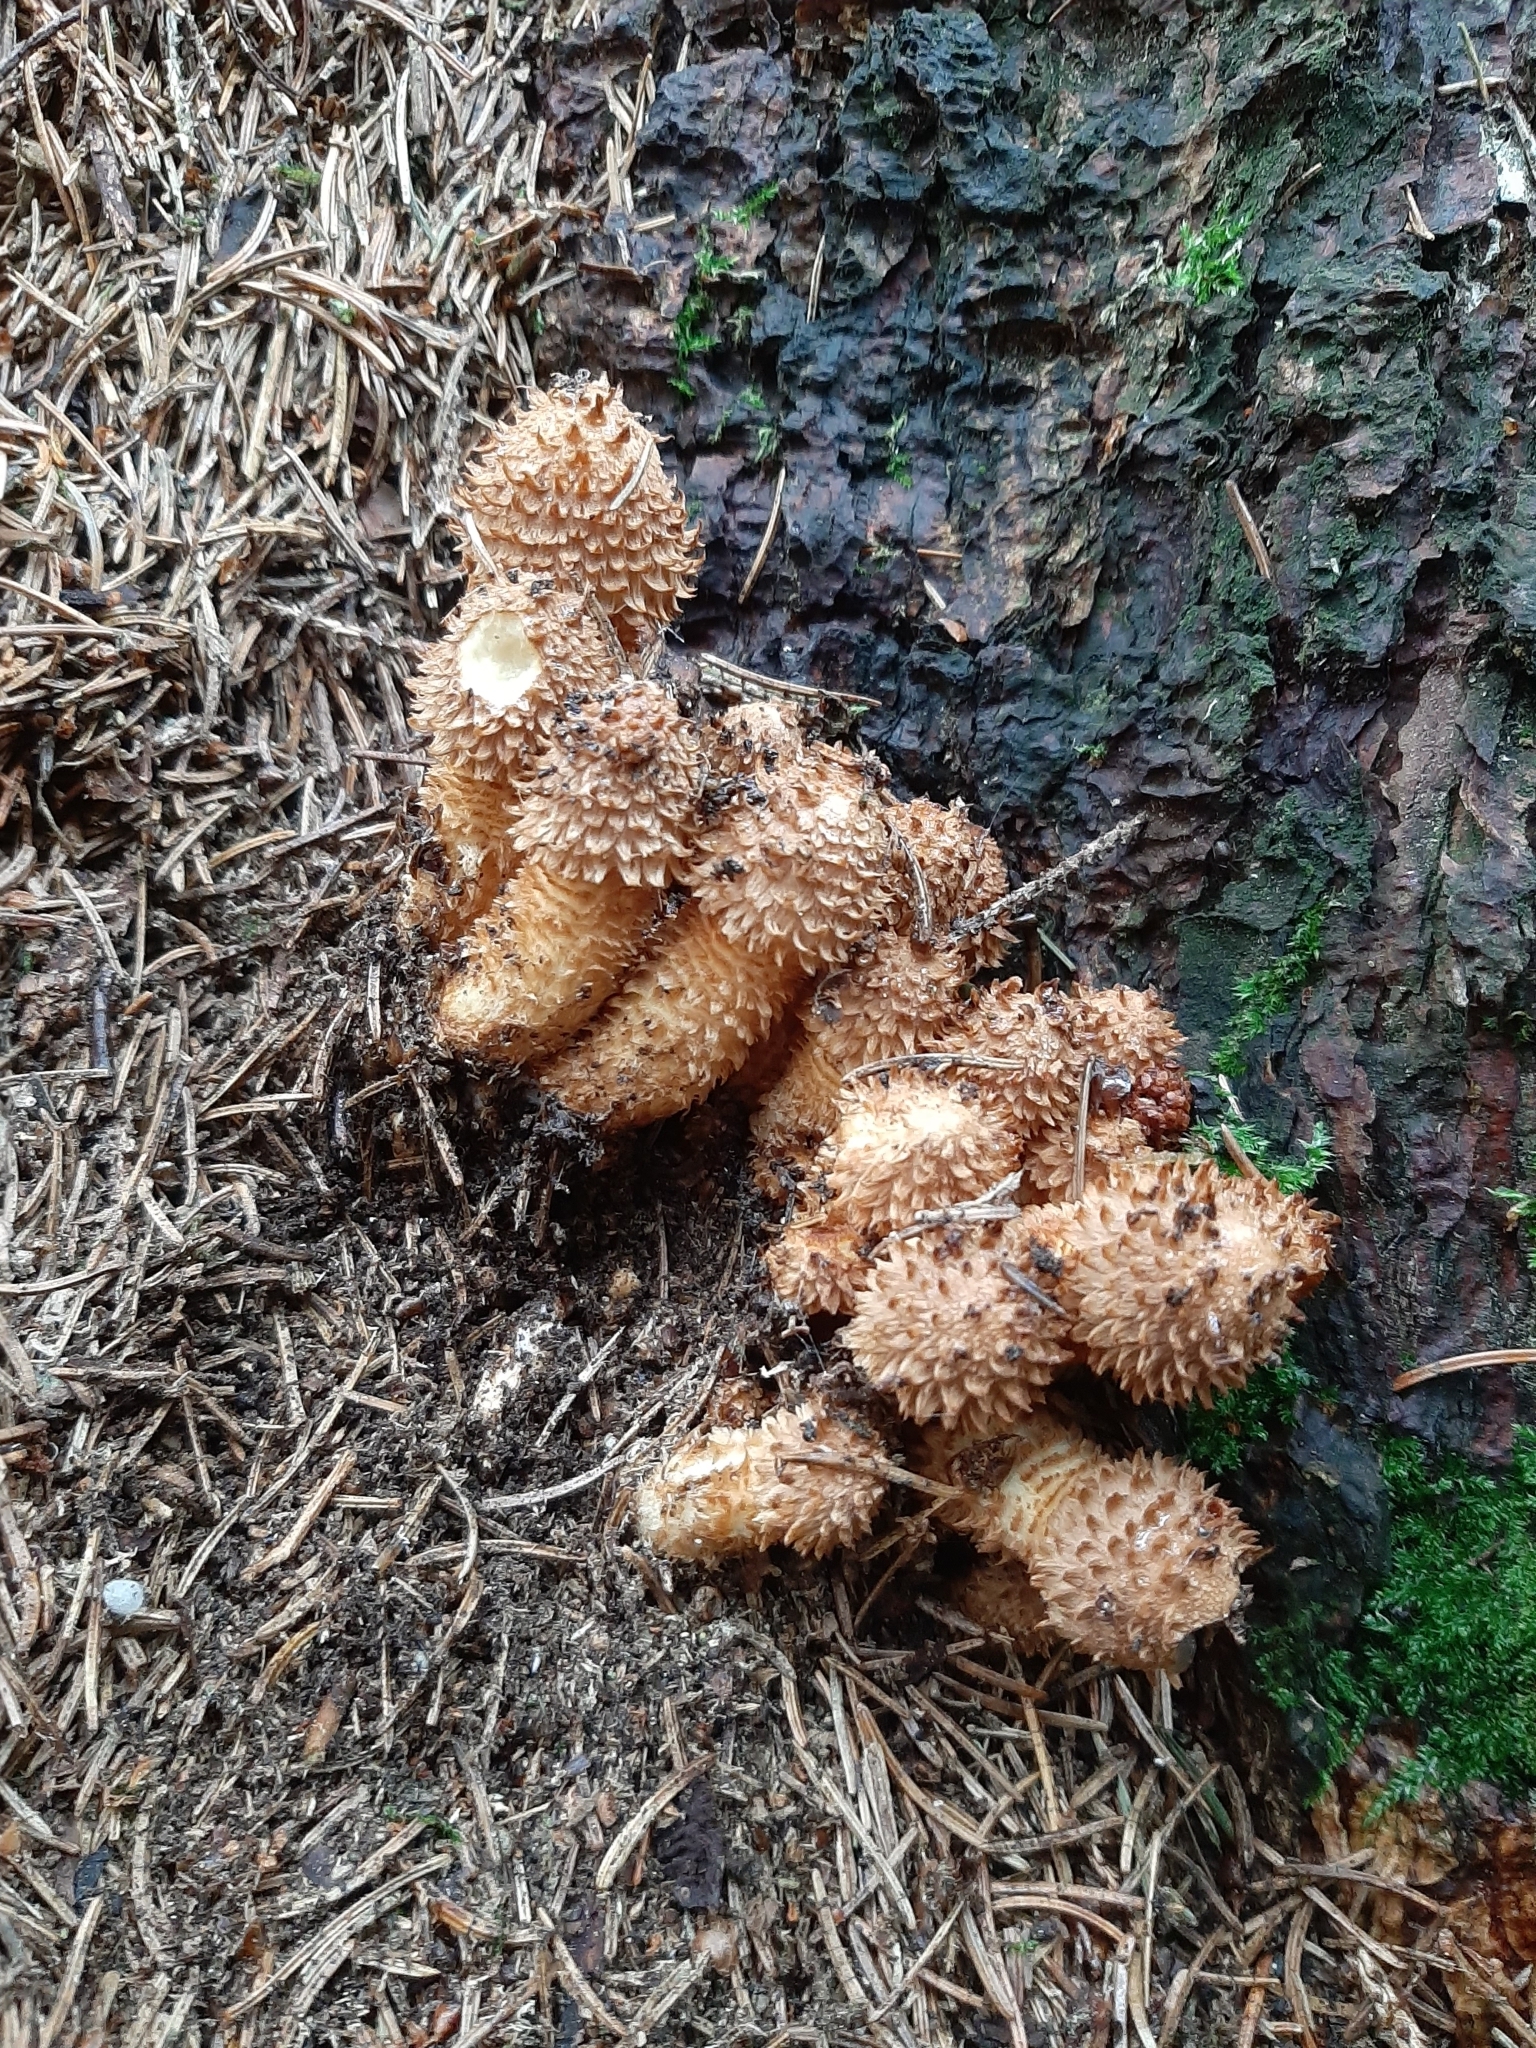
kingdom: Fungi
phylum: Basidiomycota
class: Agaricomycetes
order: Agaricales
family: Strophariaceae
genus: Pholiota
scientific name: Pholiota squarrosa
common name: Shaggy pholiota
